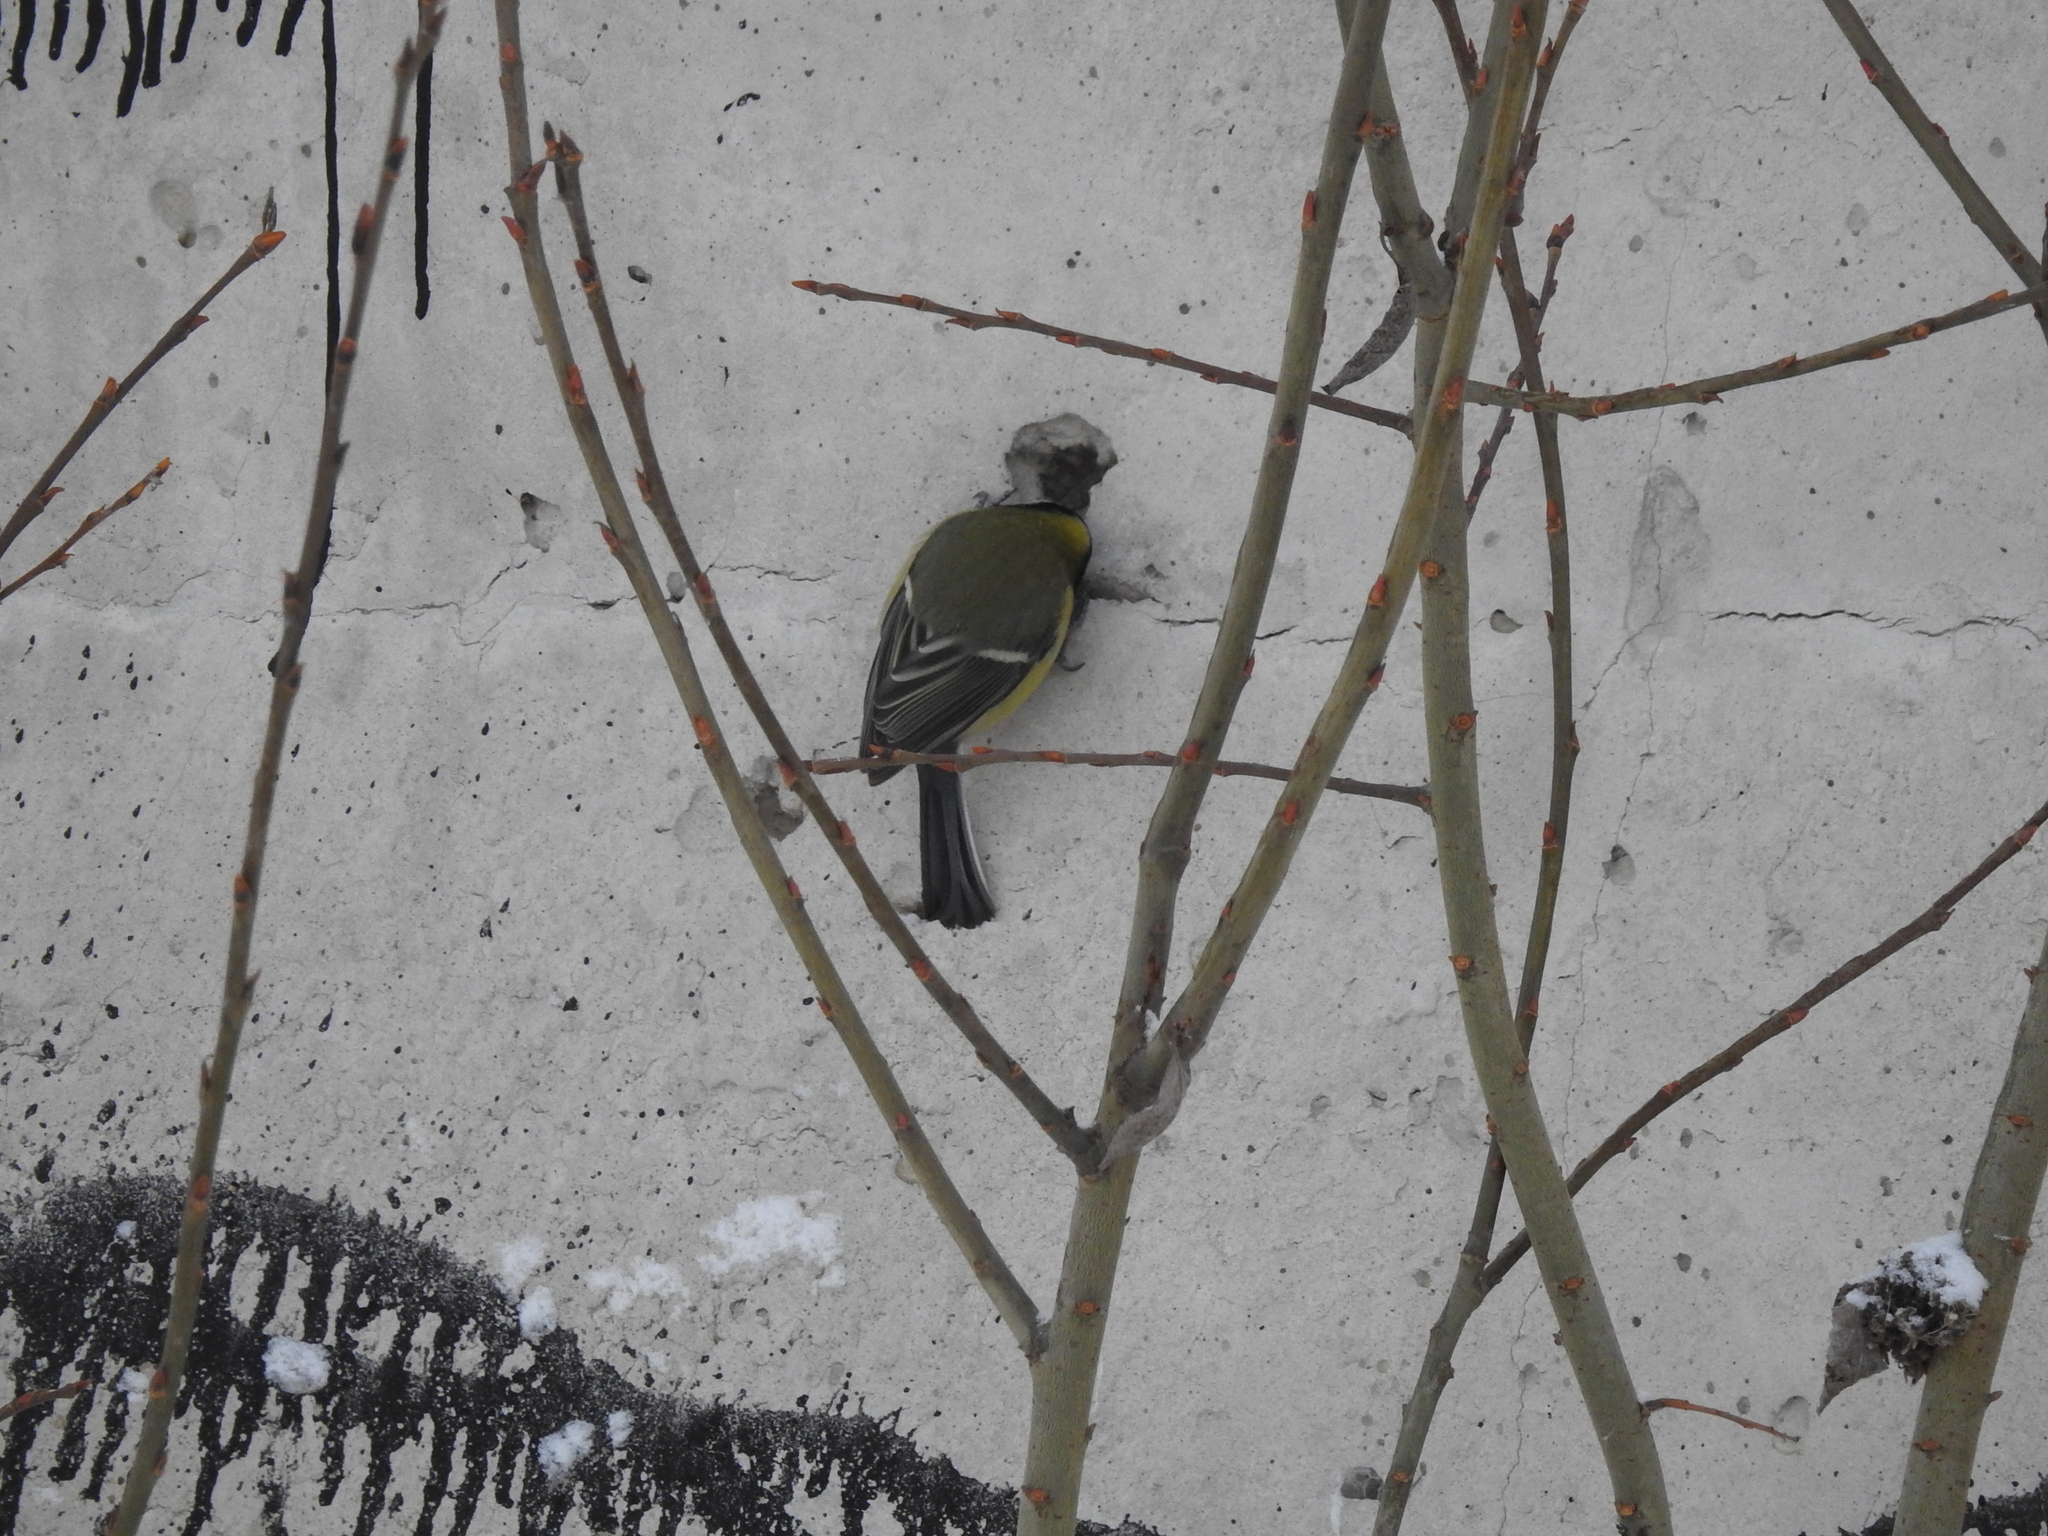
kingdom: Animalia
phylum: Chordata
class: Aves
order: Passeriformes
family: Paridae
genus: Parus
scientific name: Parus major
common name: Great tit
